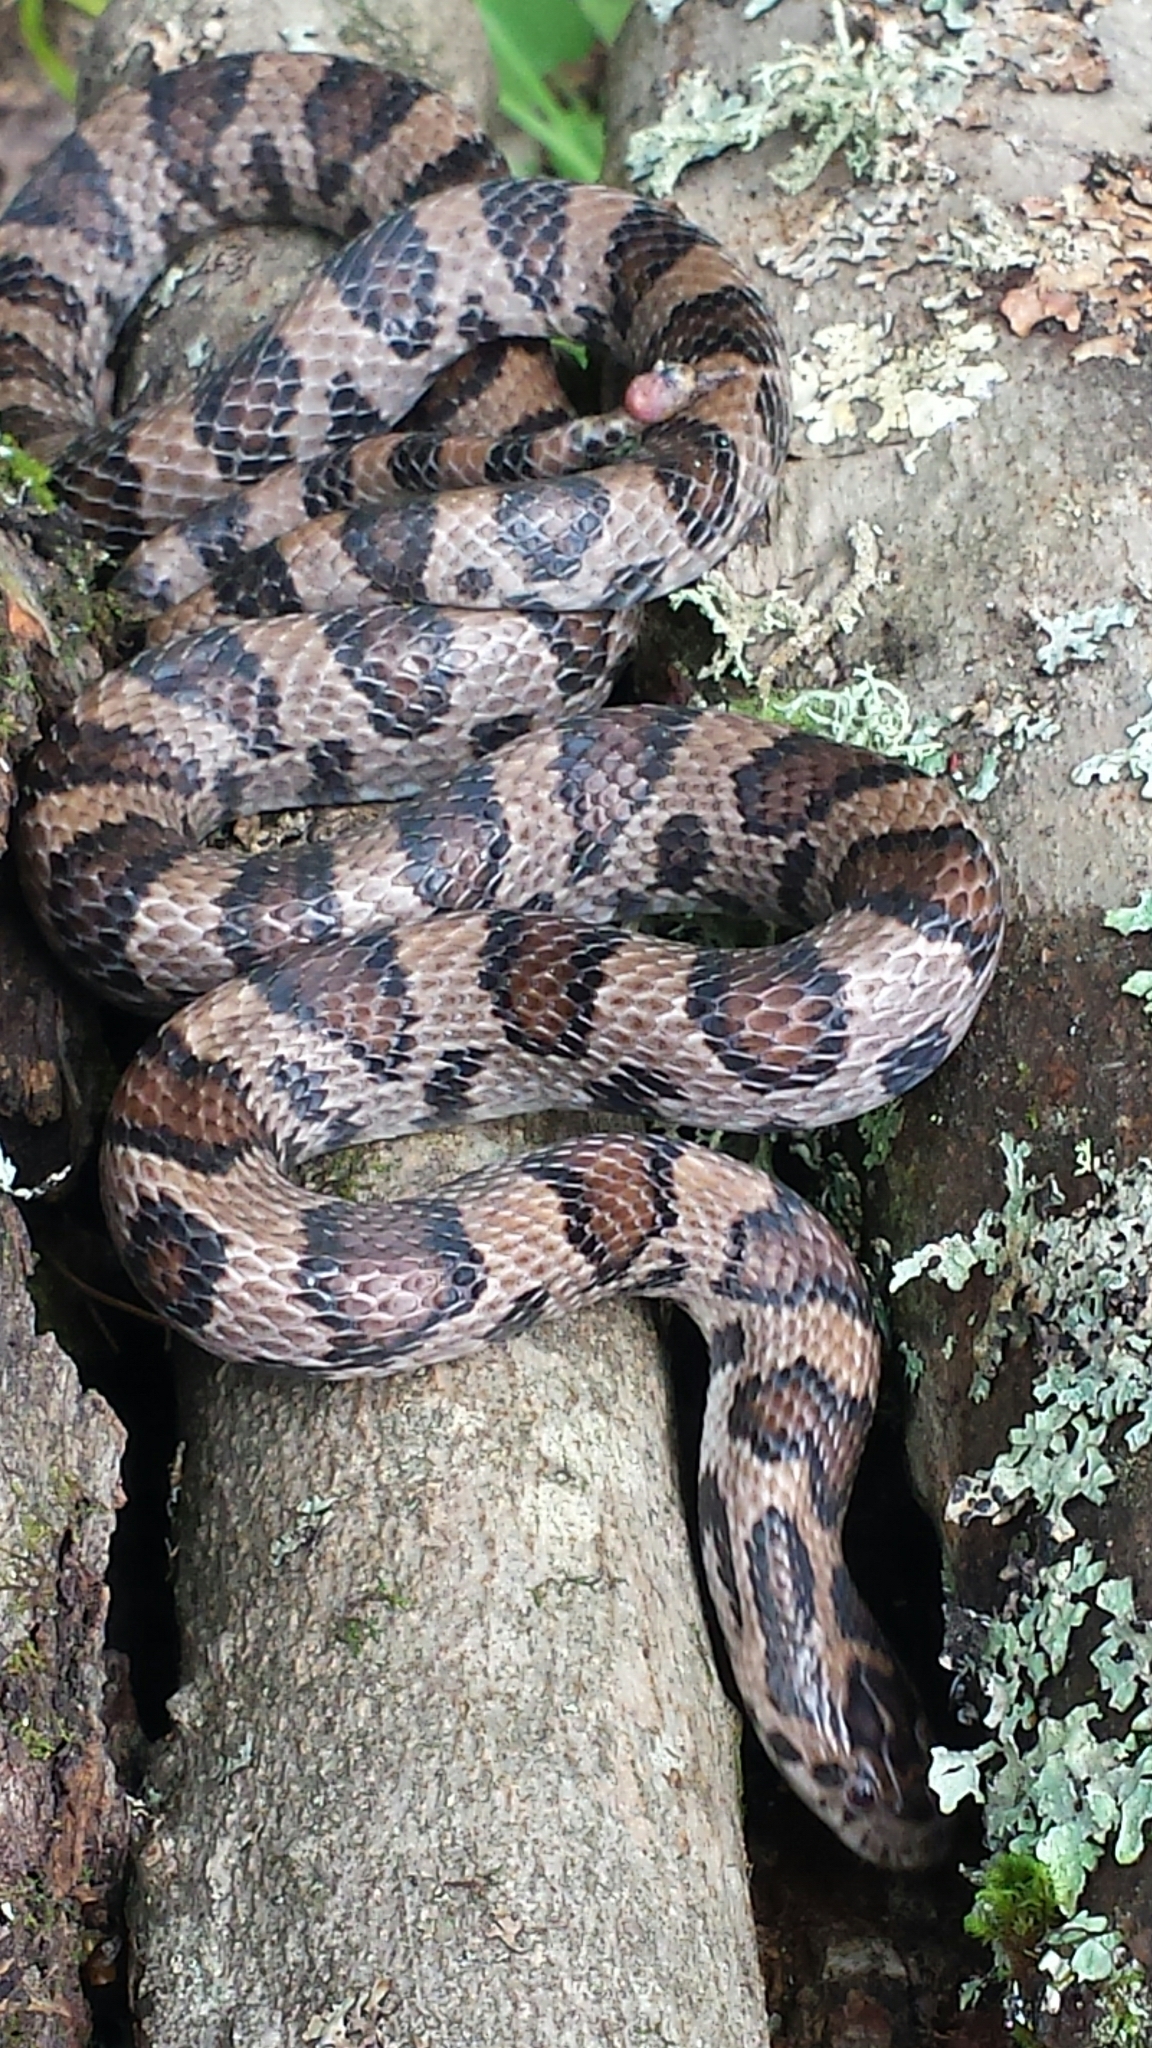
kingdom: Animalia
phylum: Chordata
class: Squamata
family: Colubridae
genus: Lampropeltis
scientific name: Lampropeltis triangulum
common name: Eastern milksnake
